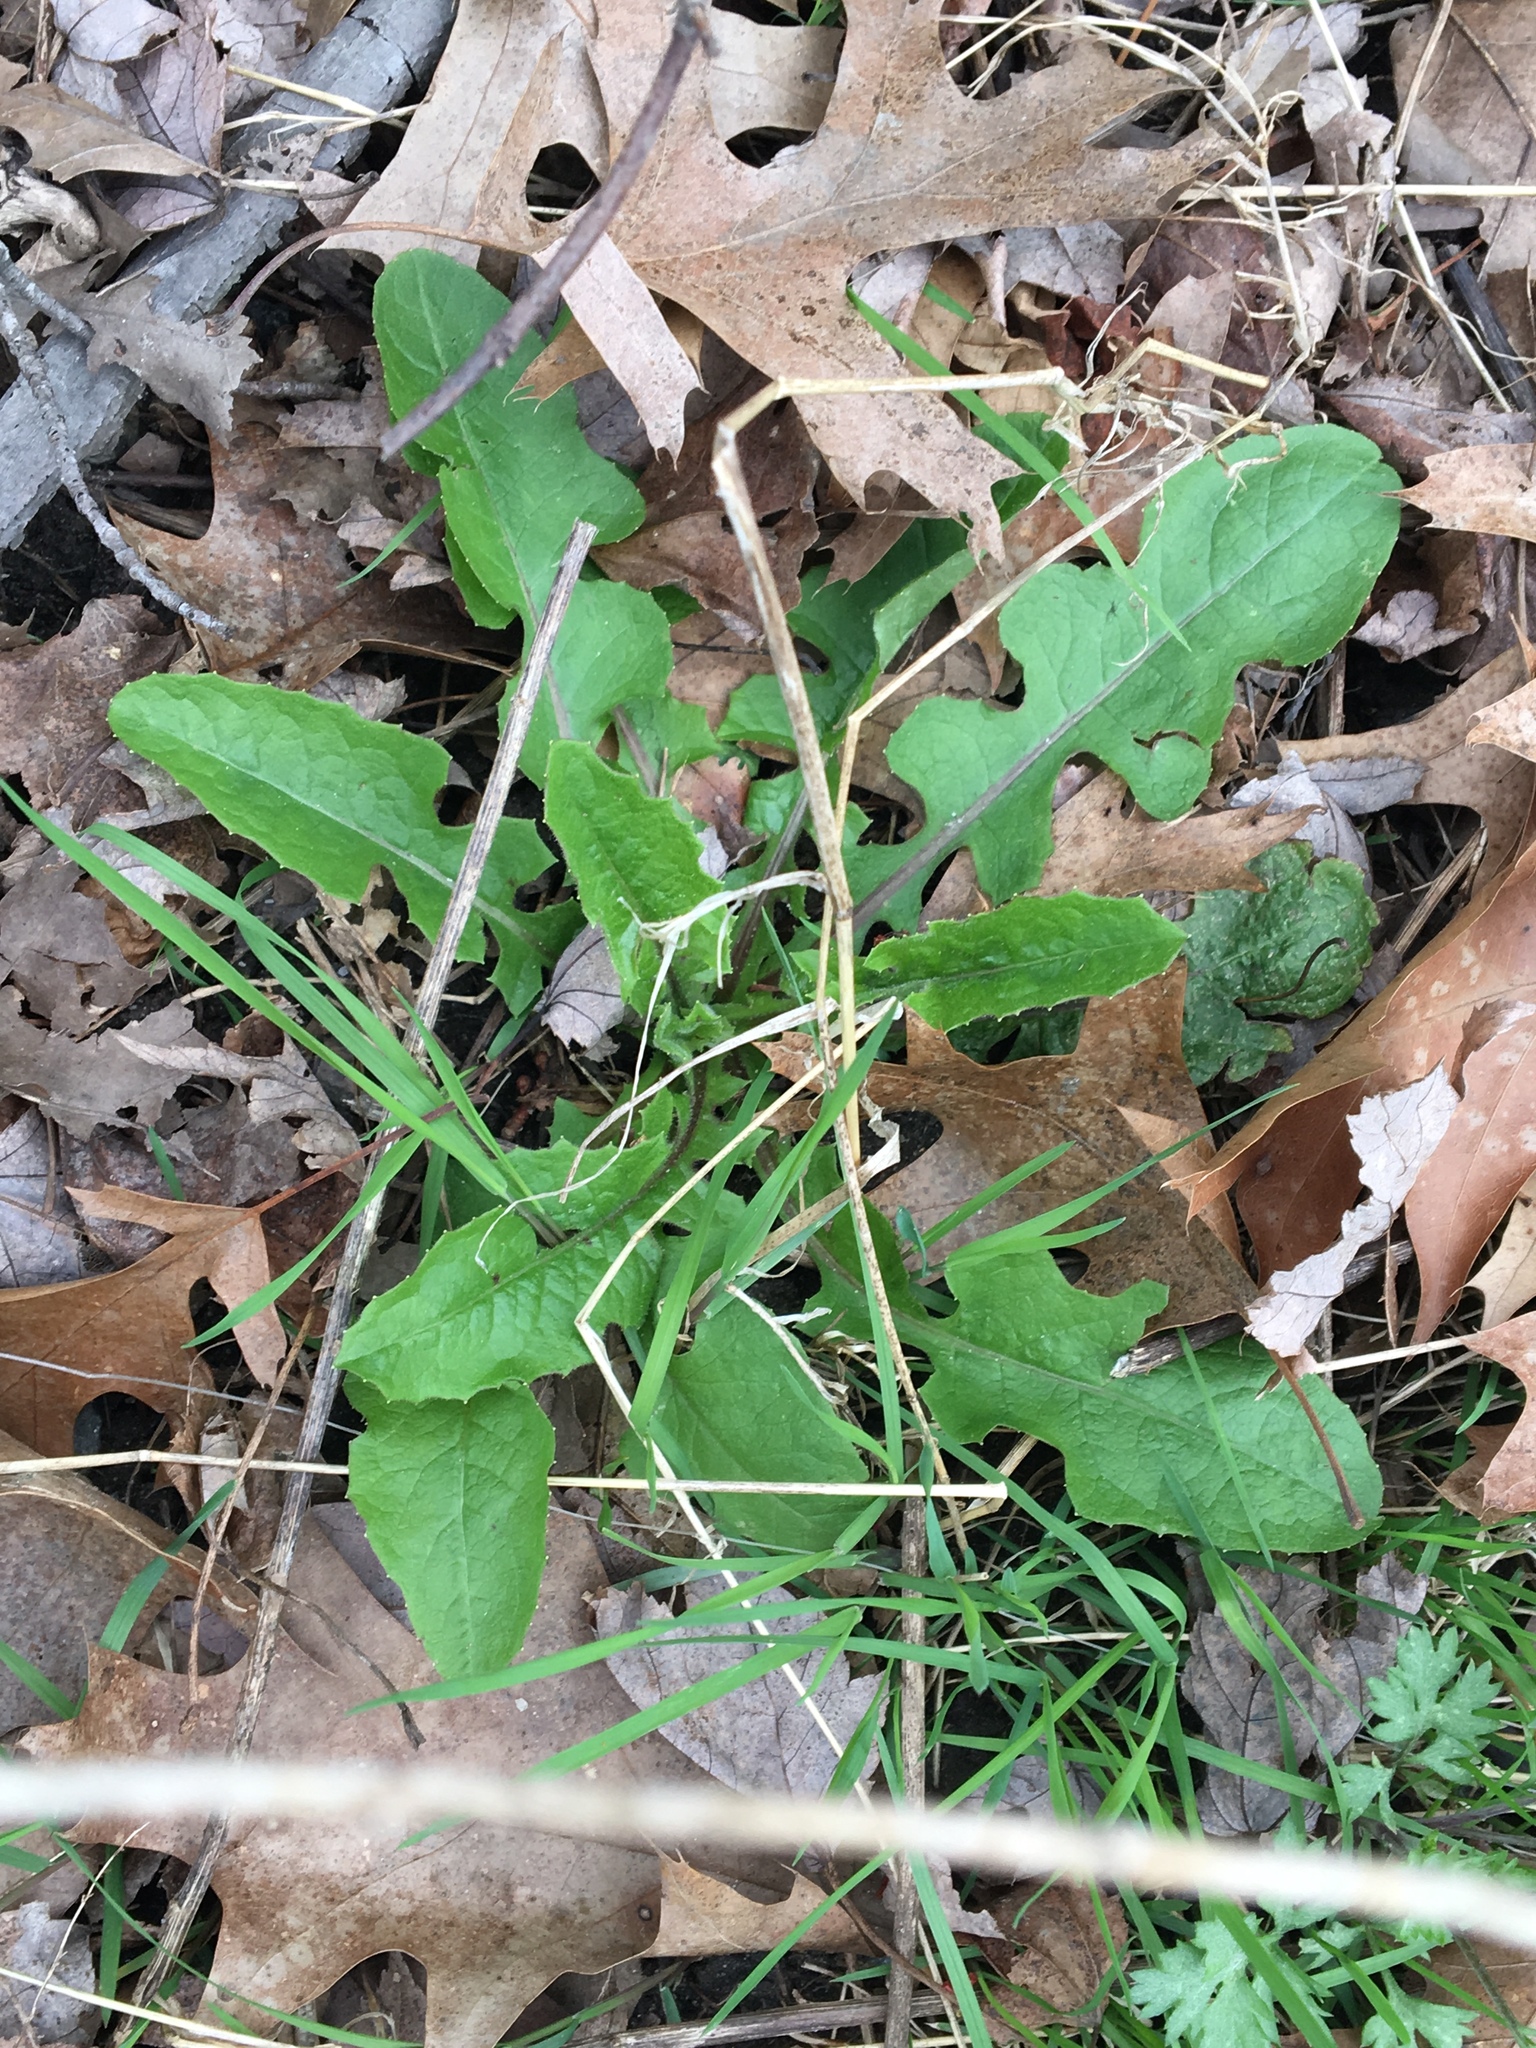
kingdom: Plantae
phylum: Tracheophyta
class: Magnoliopsida
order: Asterales
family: Asteraceae
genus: Taraxacum
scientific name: Taraxacum officinale
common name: Common dandelion
